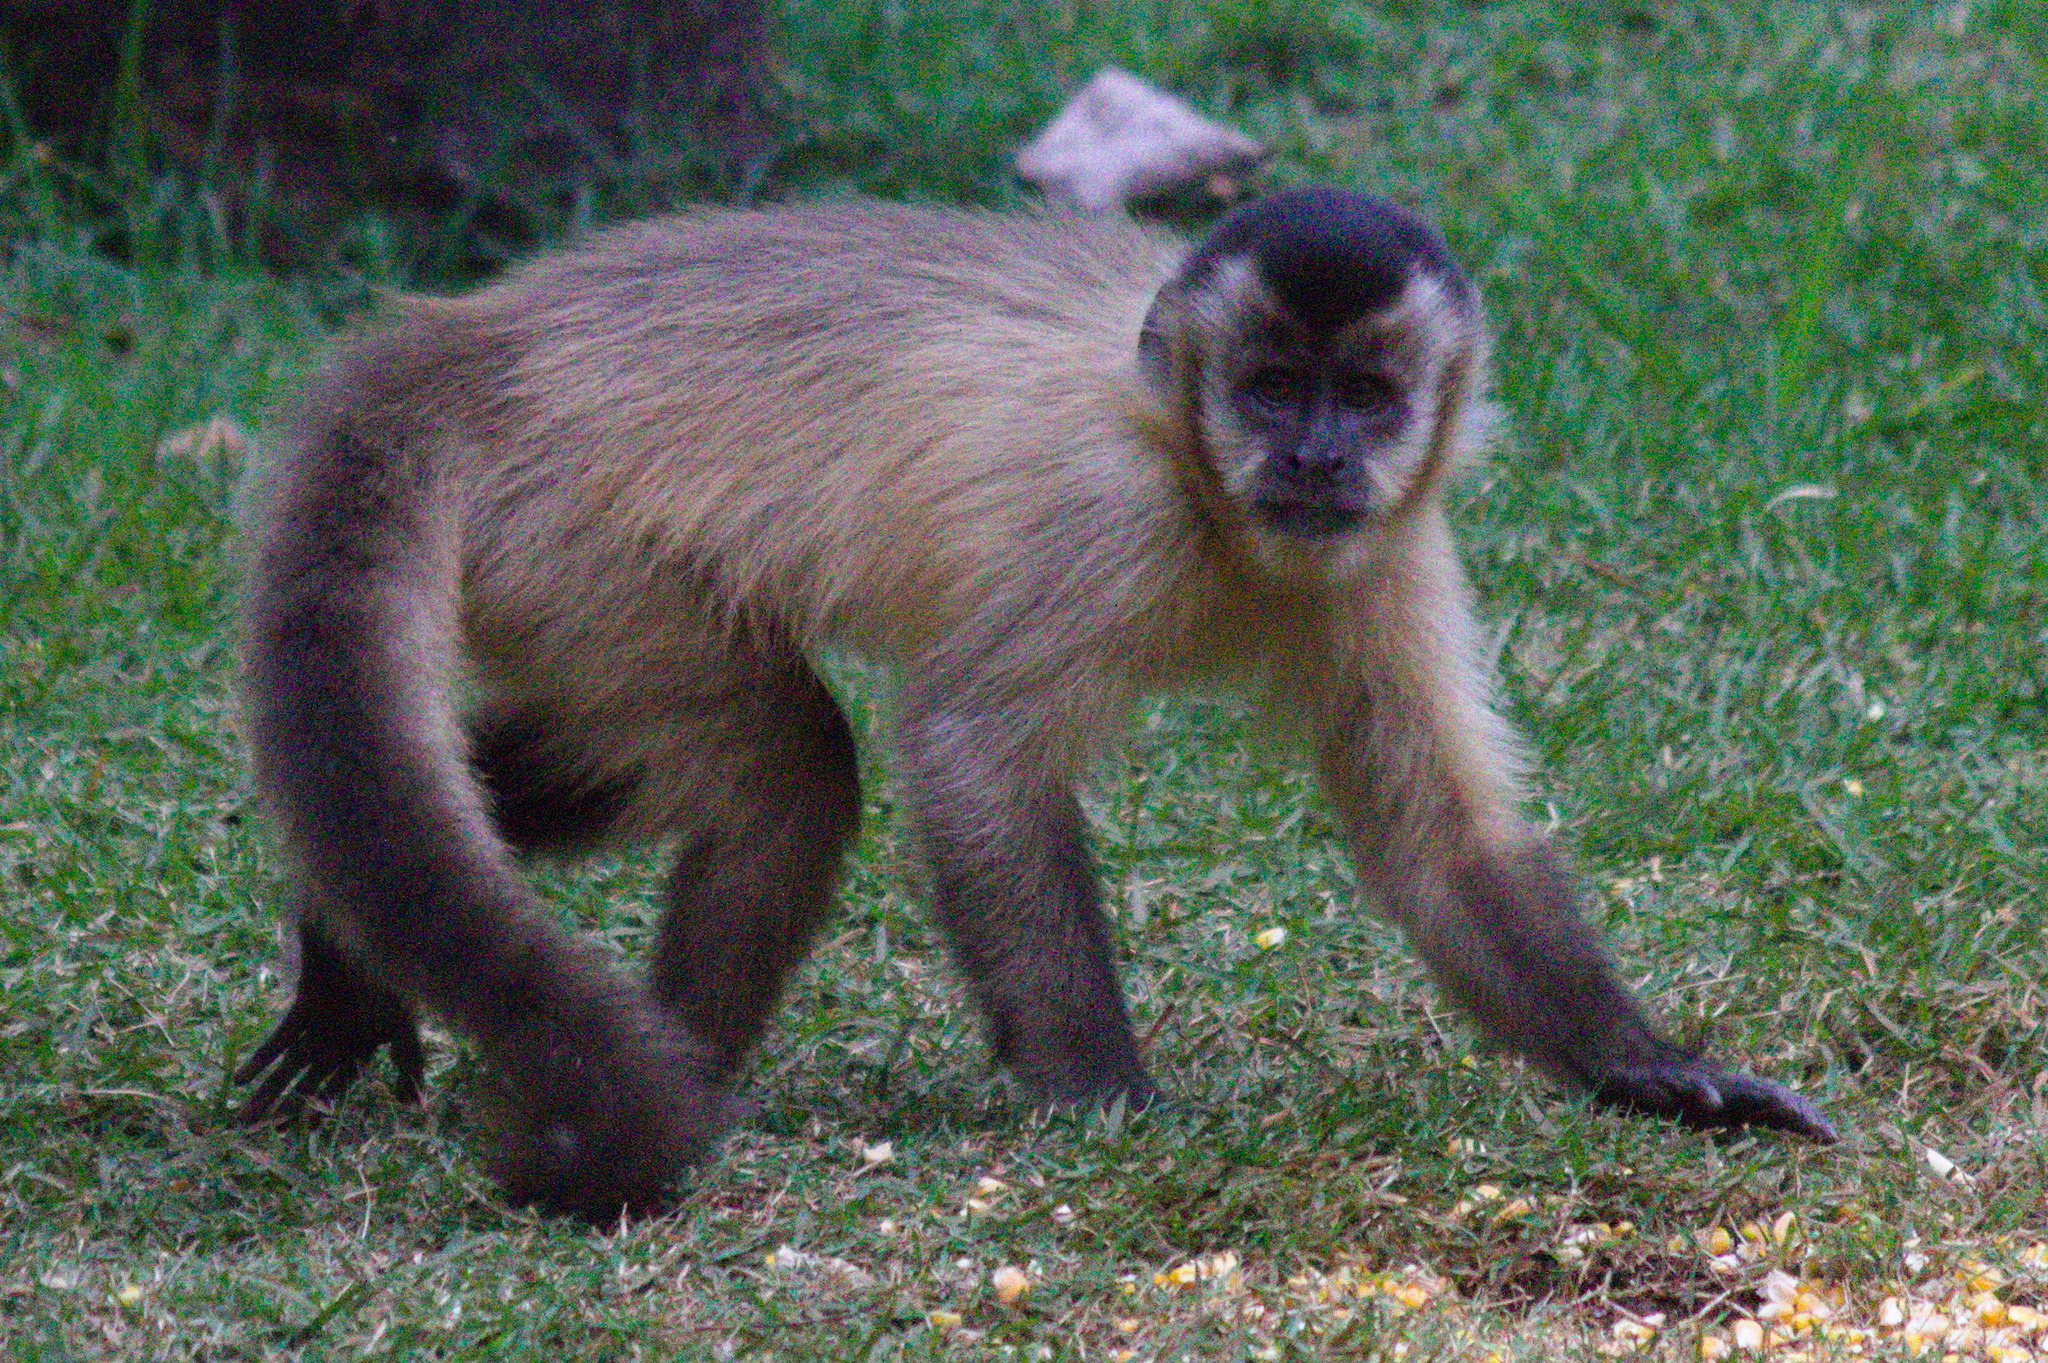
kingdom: Animalia
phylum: Chordata
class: Mammalia
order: Primates
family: Cebidae
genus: Sapajus
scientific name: Sapajus cay
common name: Hooded capuchin
